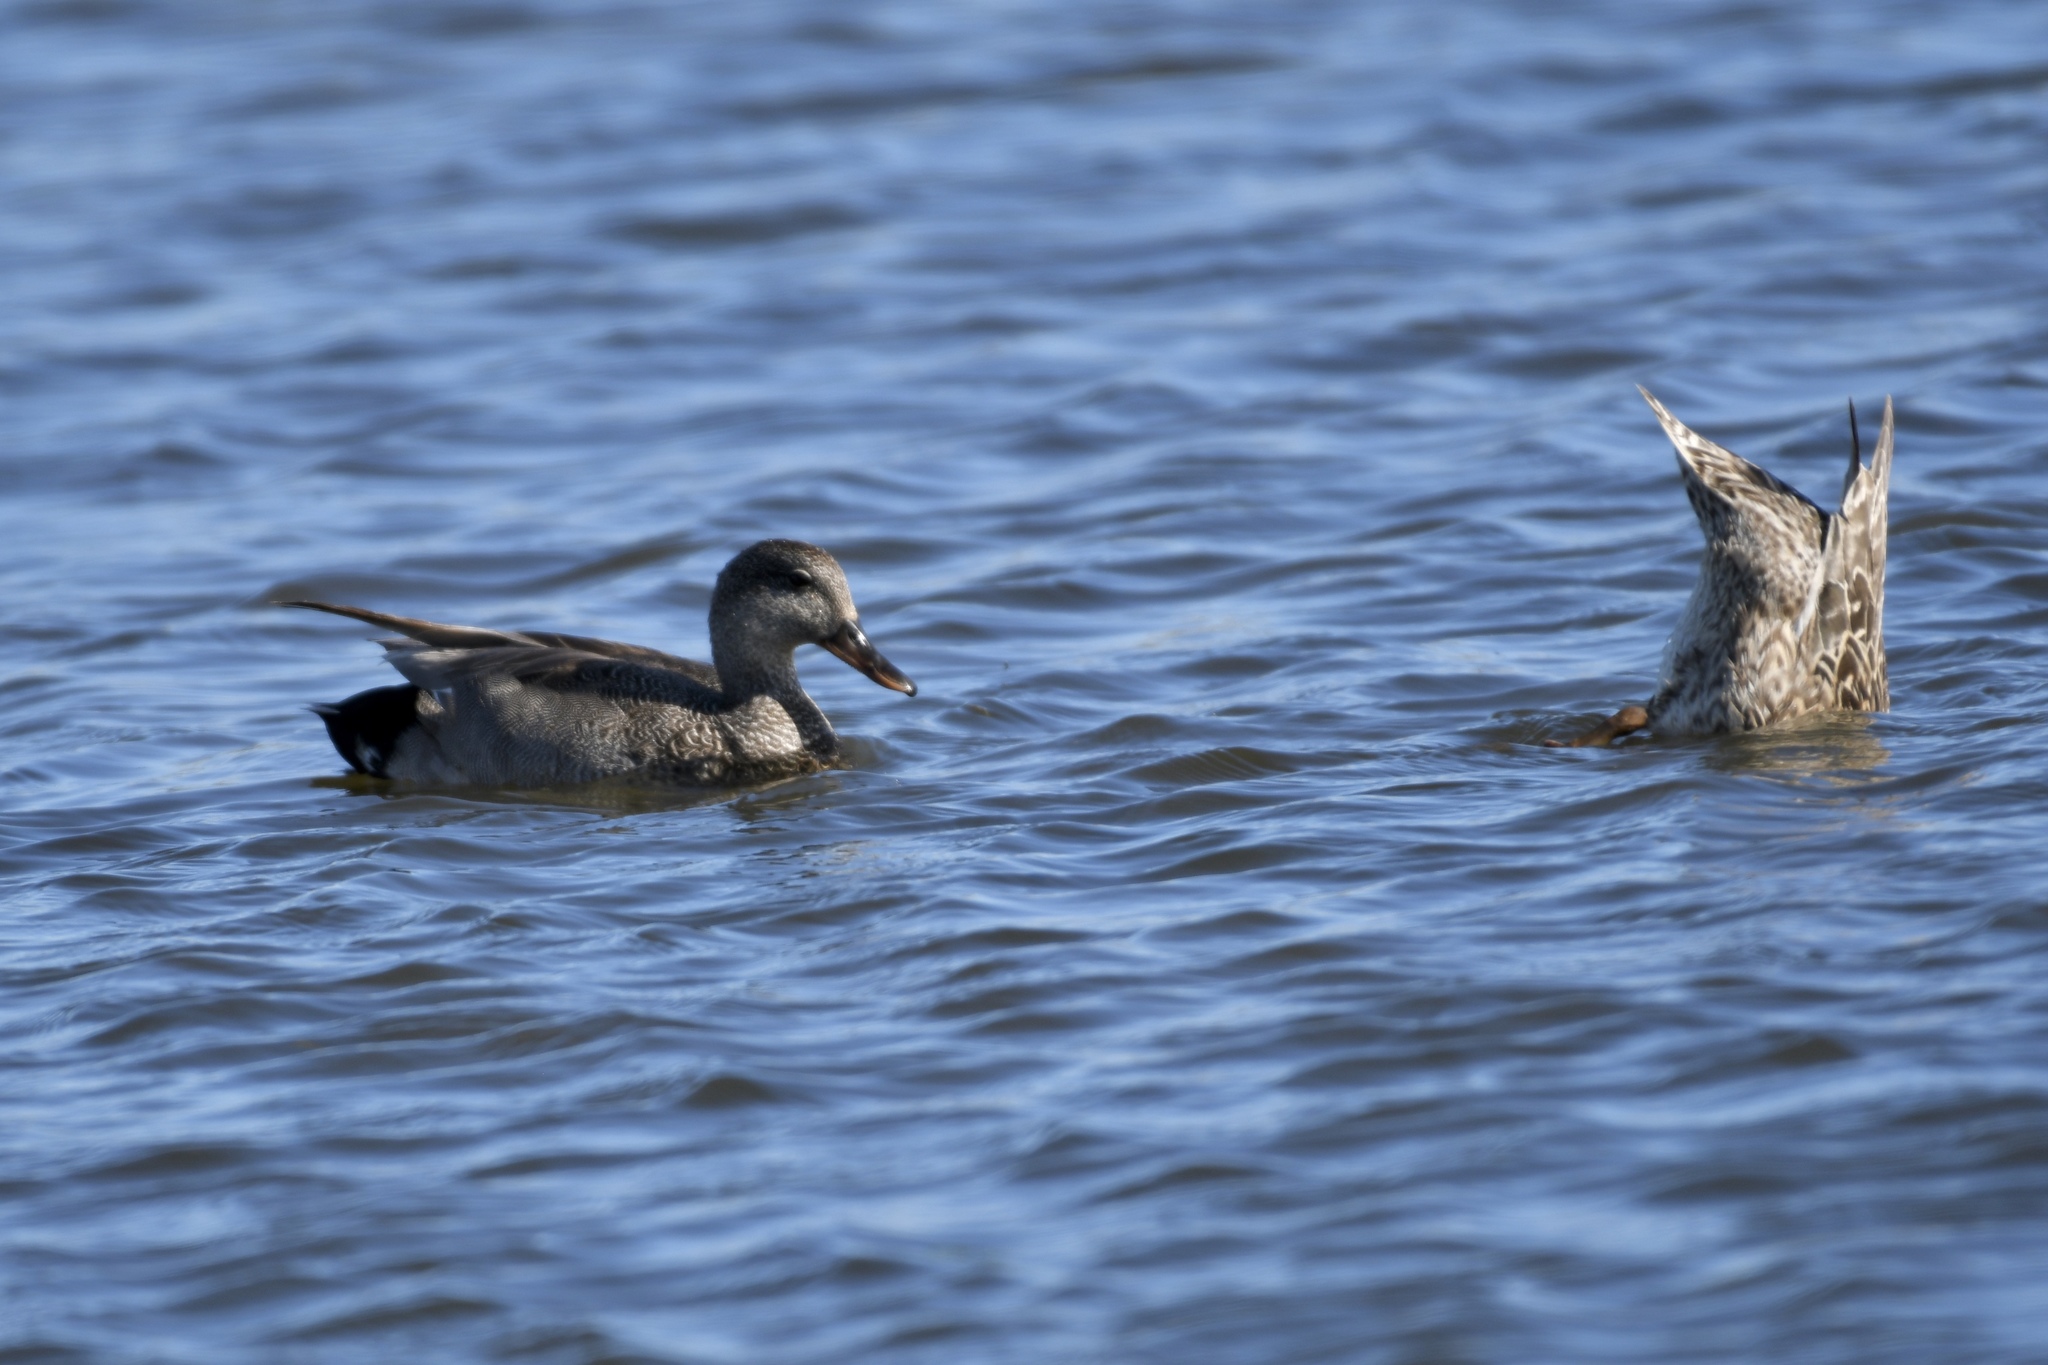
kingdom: Animalia
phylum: Chordata
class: Aves
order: Anseriformes
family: Anatidae
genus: Mareca
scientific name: Mareca strepera
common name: Gadwall
